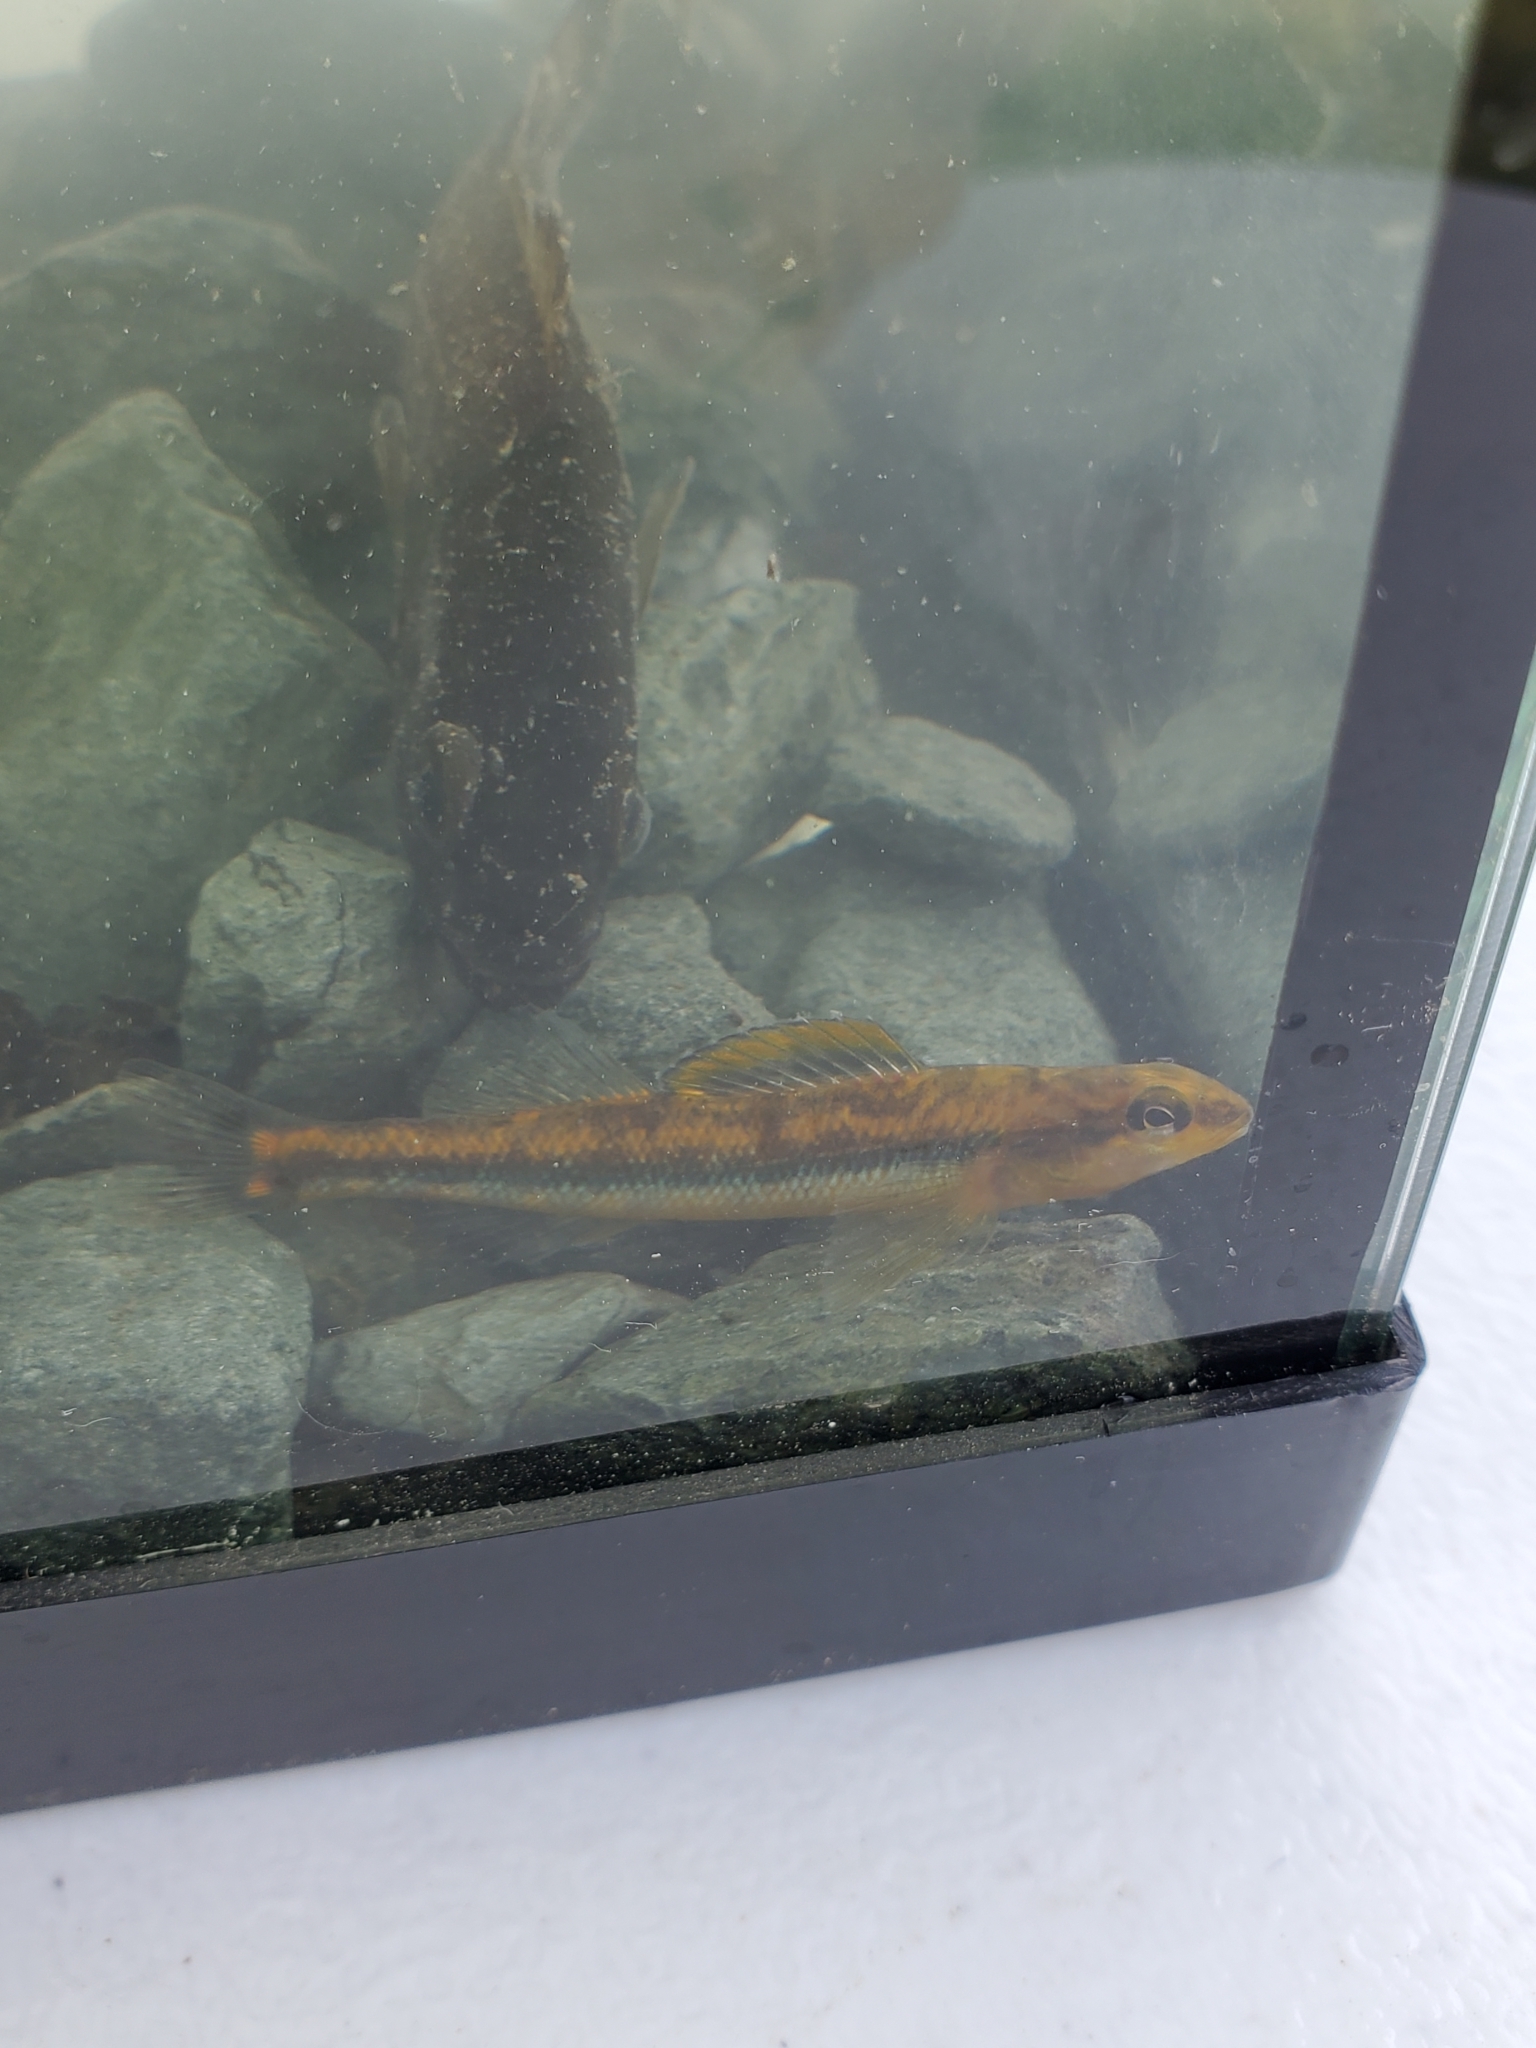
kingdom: Animalia
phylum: Chordata
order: Perciformes
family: Percidae
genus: Percina
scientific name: Percina roanoka
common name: Roanoke darter
